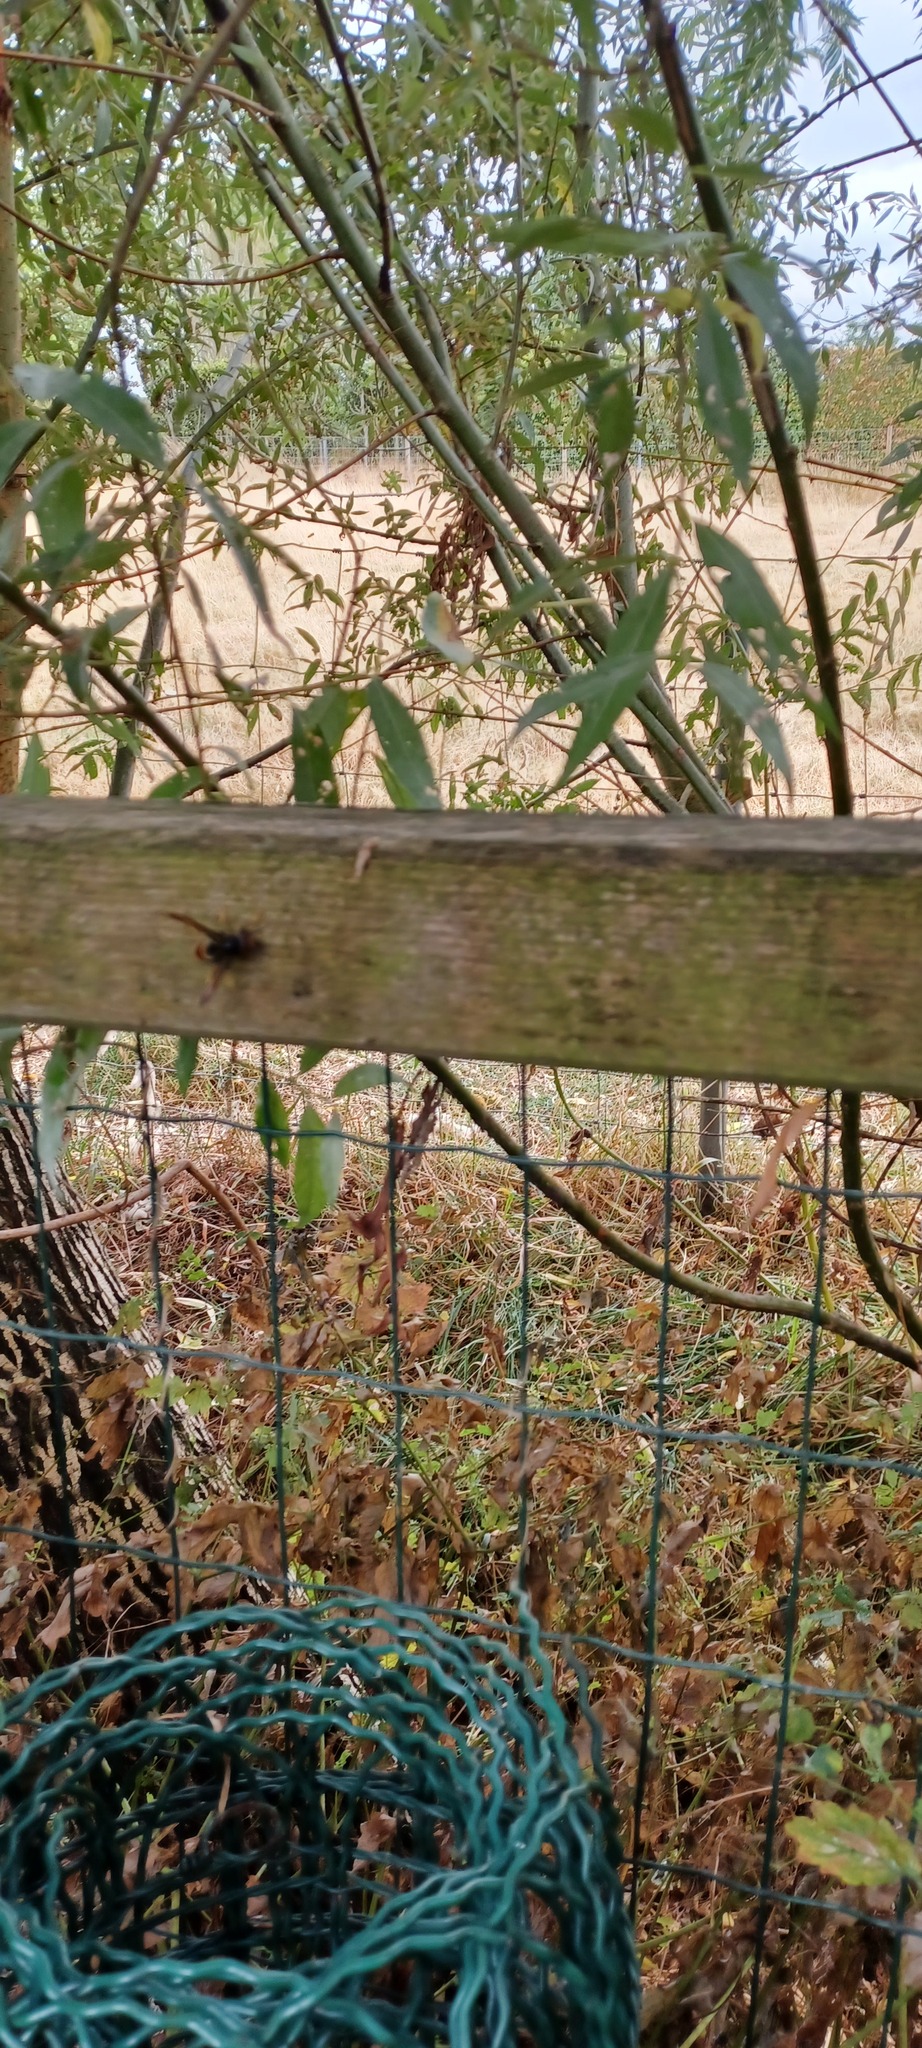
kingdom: Animalia
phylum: Arthropoda
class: Insecta
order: Hymenoptera
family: Vespidae
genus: Vespa
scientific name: Vespa velutina
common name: Asian hornet
